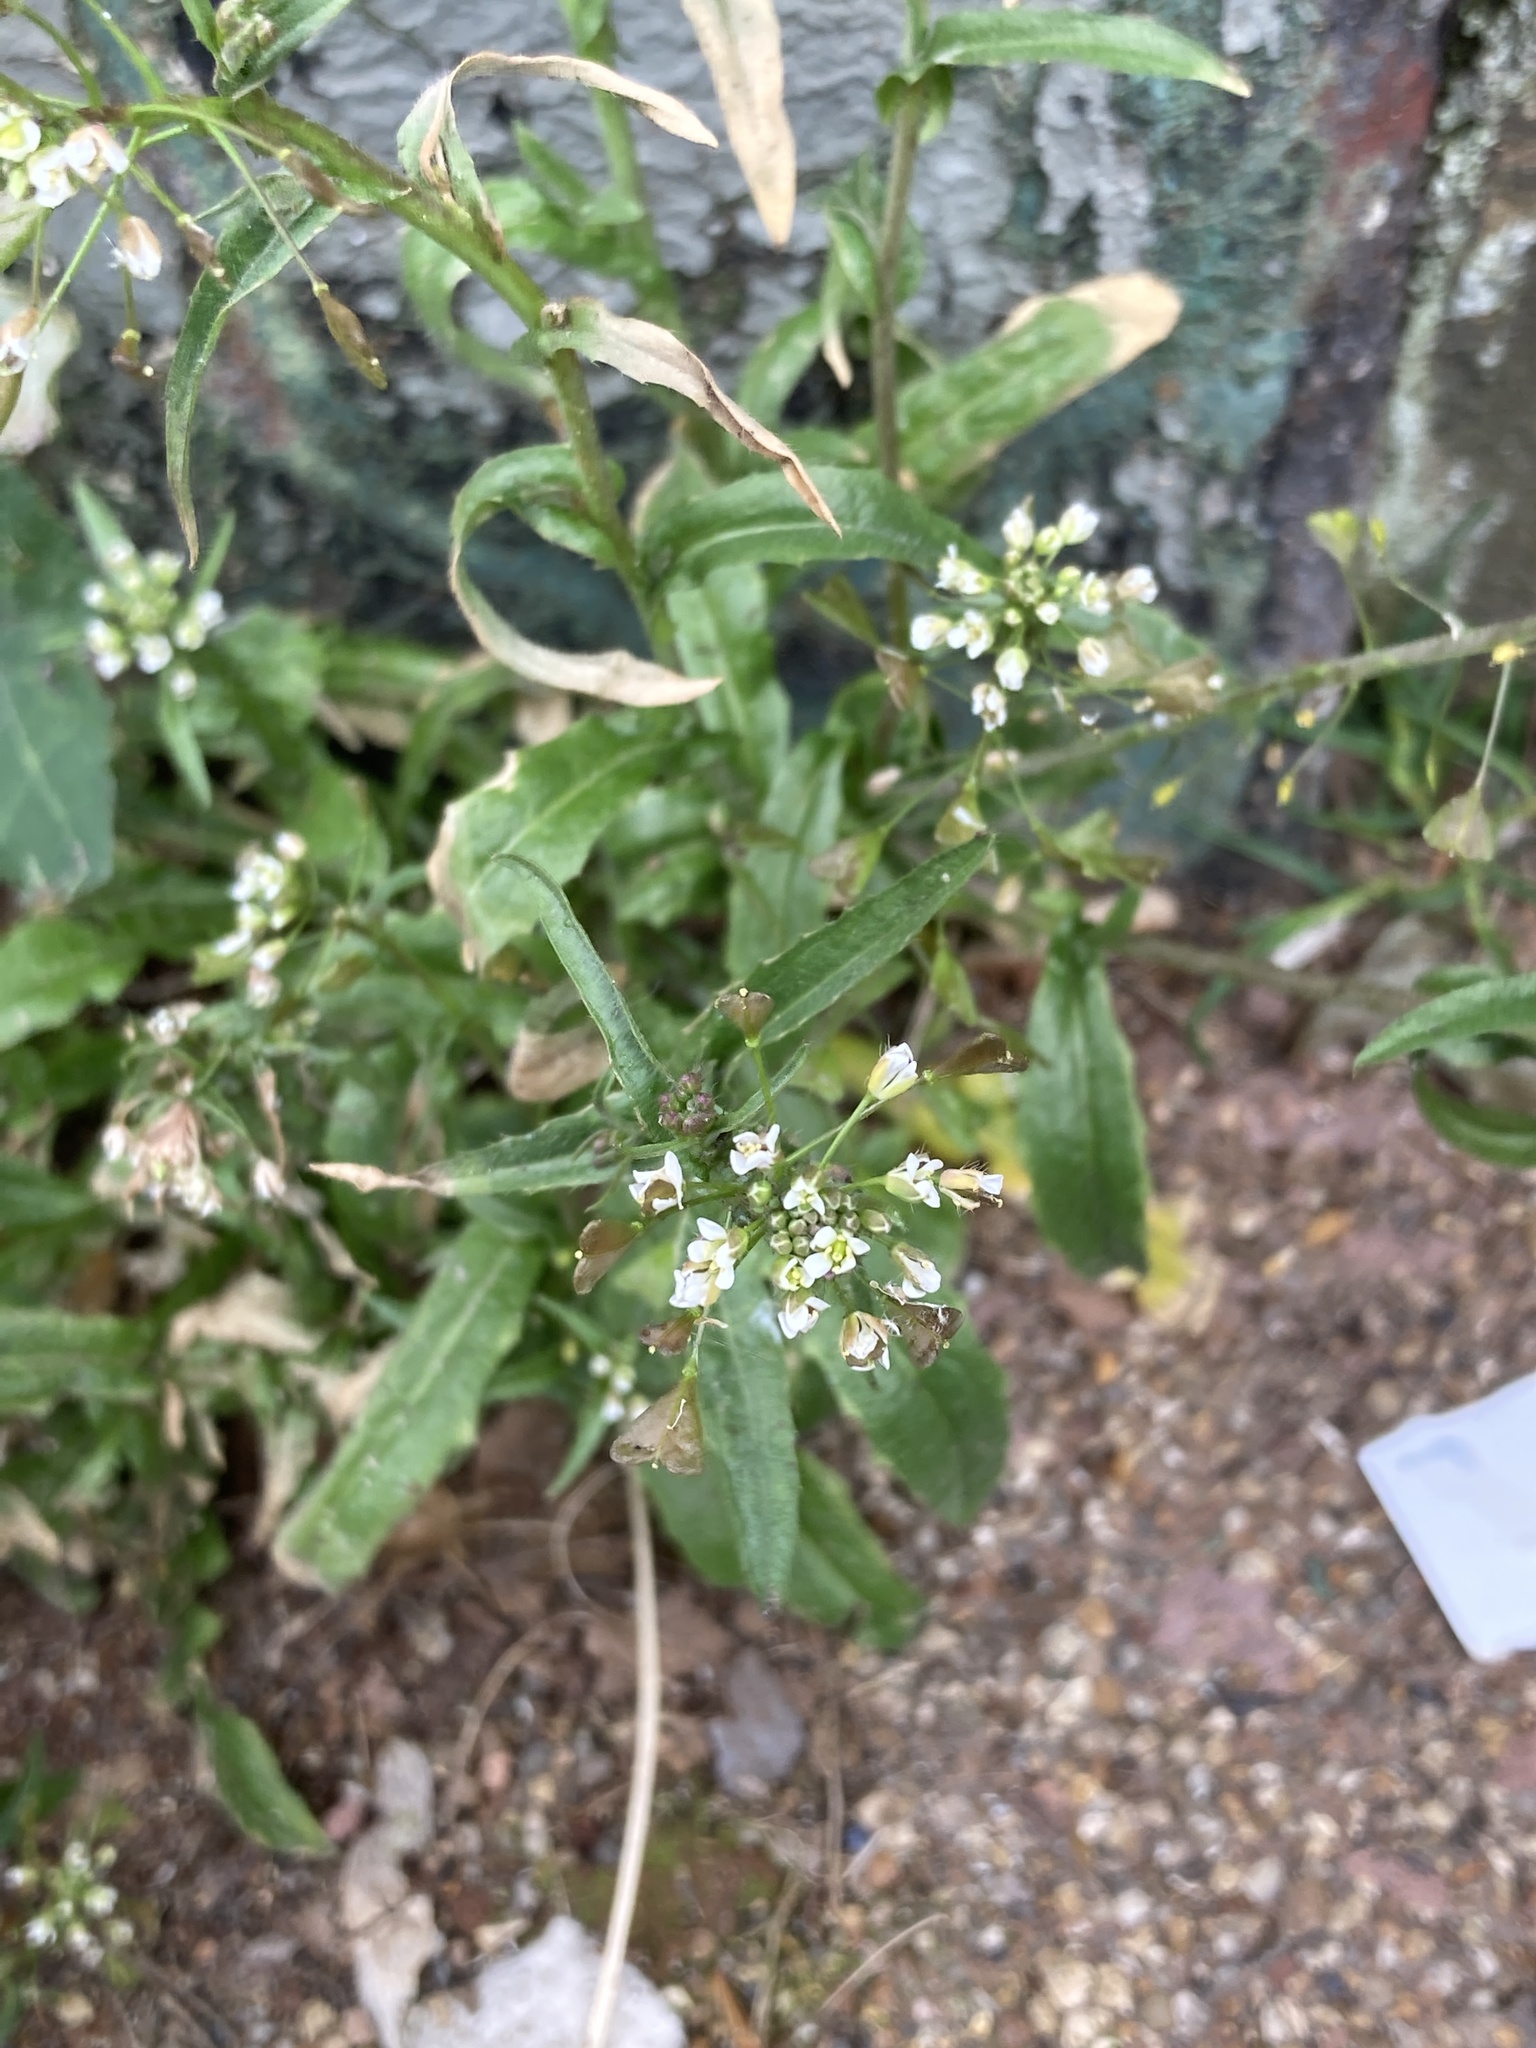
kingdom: Plantae
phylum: Tracheophyta
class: Magnoliopsida
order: Brassicales
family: Brassicaceae
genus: Capsella
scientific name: Capsella bursa-pastoris
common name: Shepherd's purse
